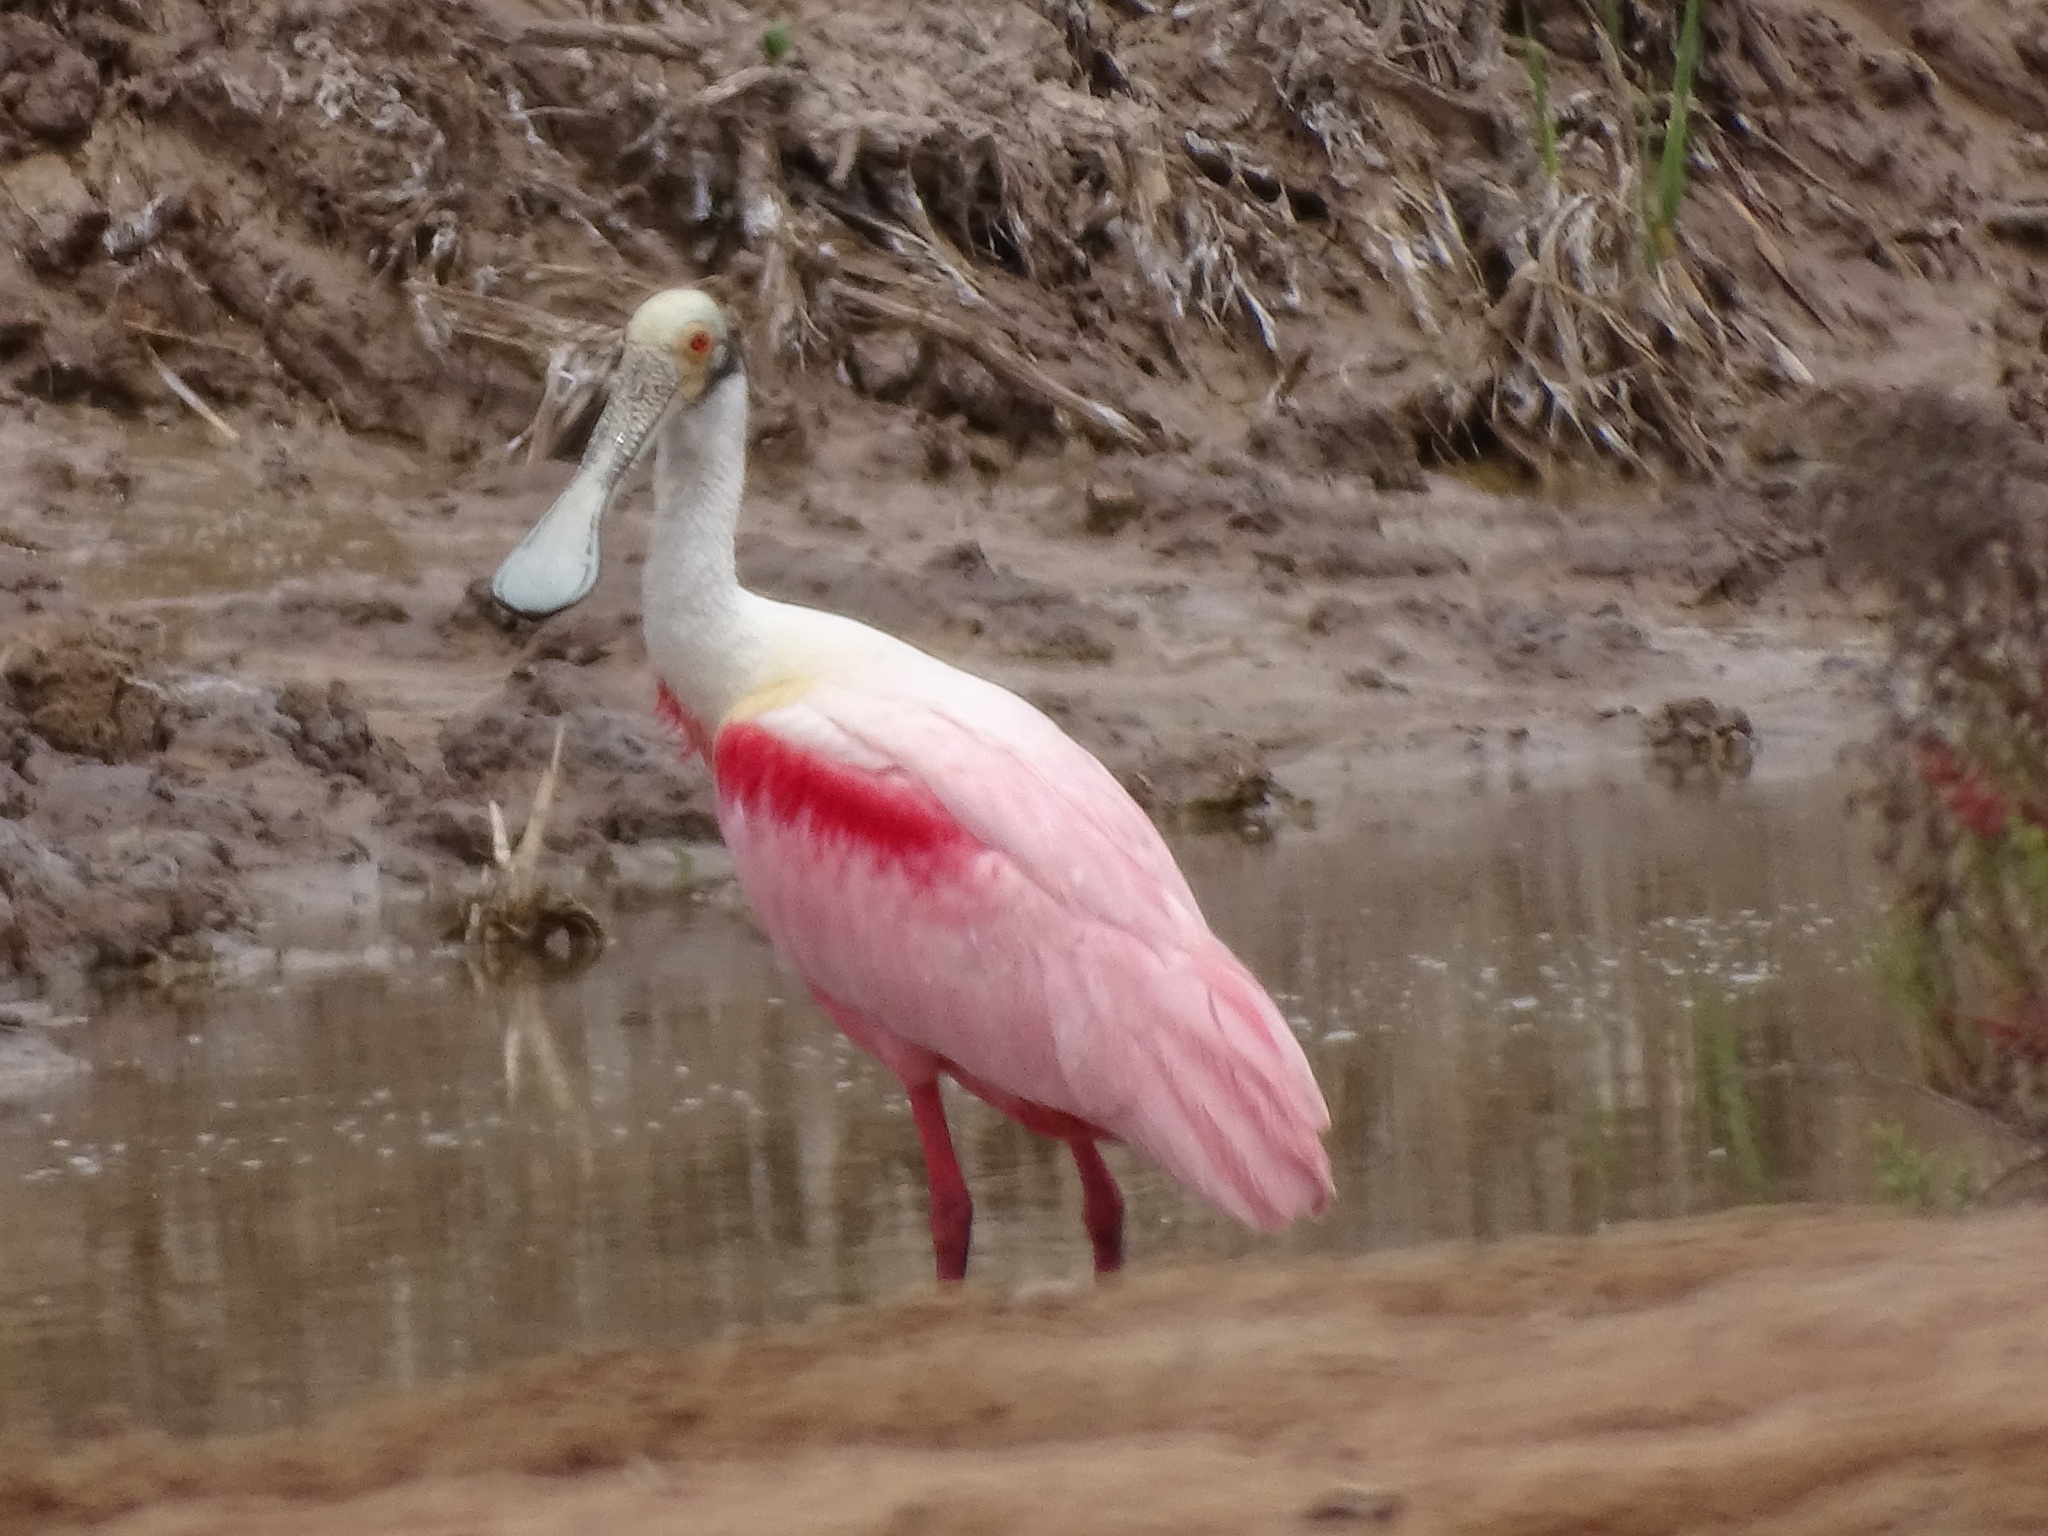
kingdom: Animalia
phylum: Chordata
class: Aves
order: Pelecaniformes
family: Threskiornithidae
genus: Platalea
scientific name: Platalea ajaja
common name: Roseate spoonbill
